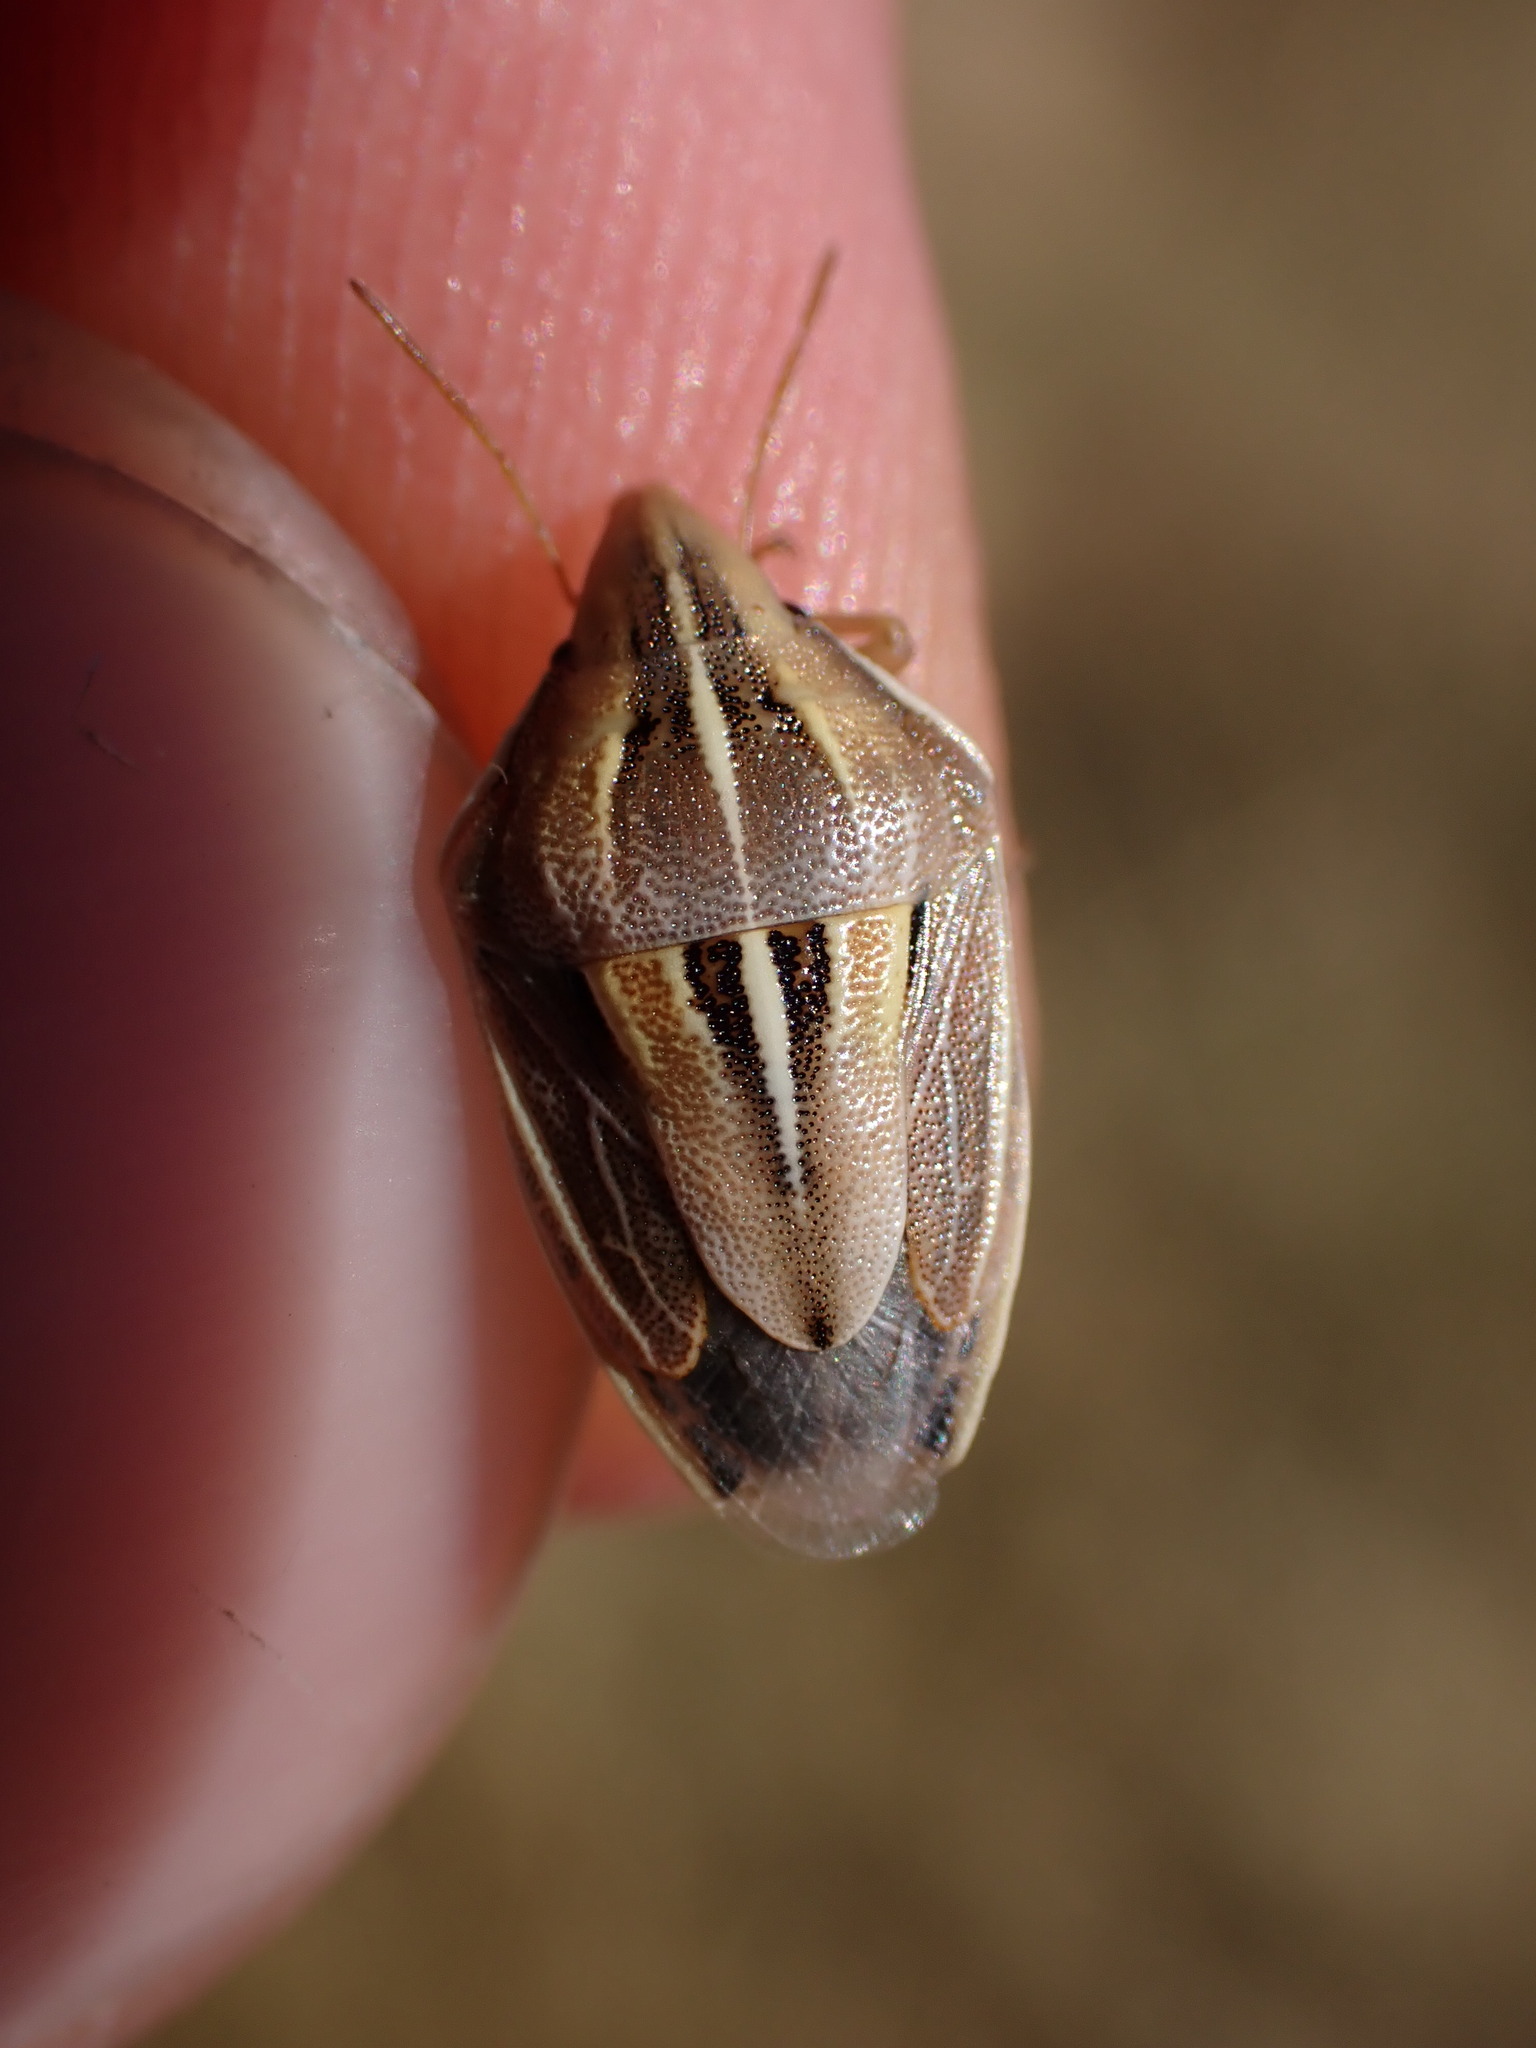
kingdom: Animalia
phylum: Arthropoda
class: Insecta
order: Hemiptera
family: Pentatomidae
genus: Aelia
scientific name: Aelia rostrata
